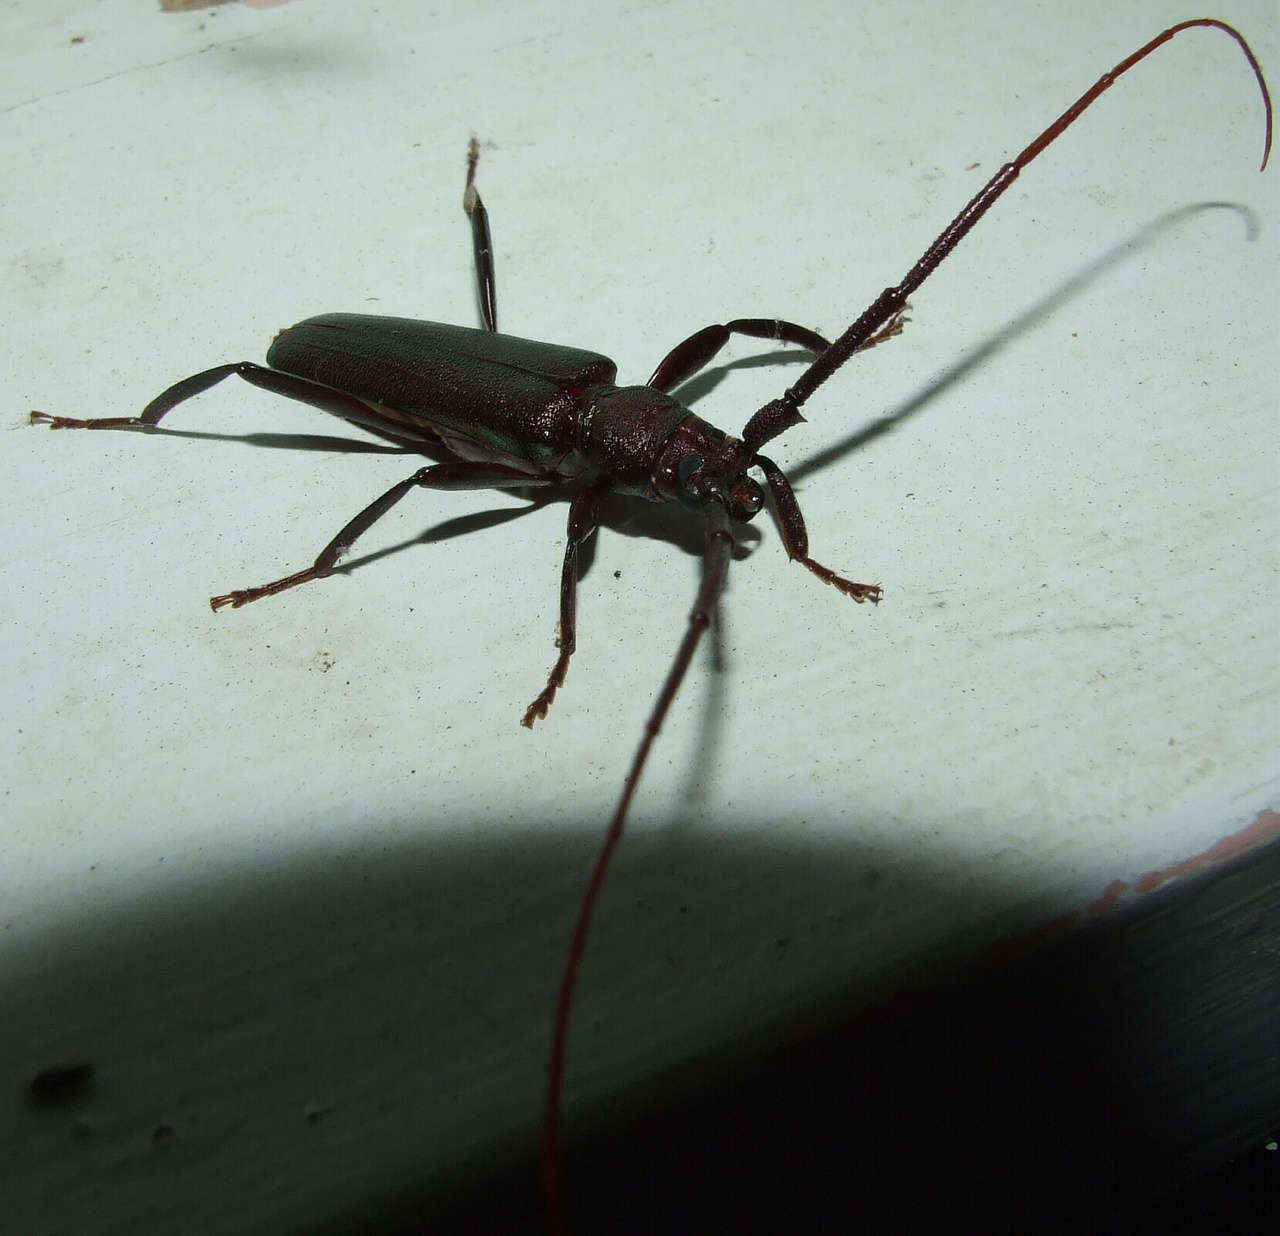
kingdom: Animalia
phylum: Arthropoda
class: Insecta
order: Coleoptera
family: Cerambycidae
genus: Xystrocera
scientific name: Xystrocera virescens
